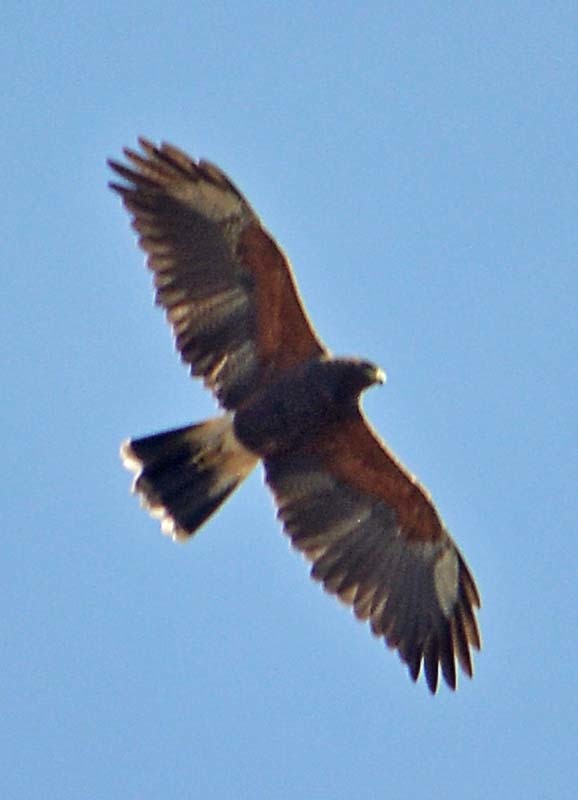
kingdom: Animalia
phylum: Chordata
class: Aves
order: Accipitriformes
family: Accipitridae
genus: Parabuteo
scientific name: Parabuteo unicinctus
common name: Harris's hawk
